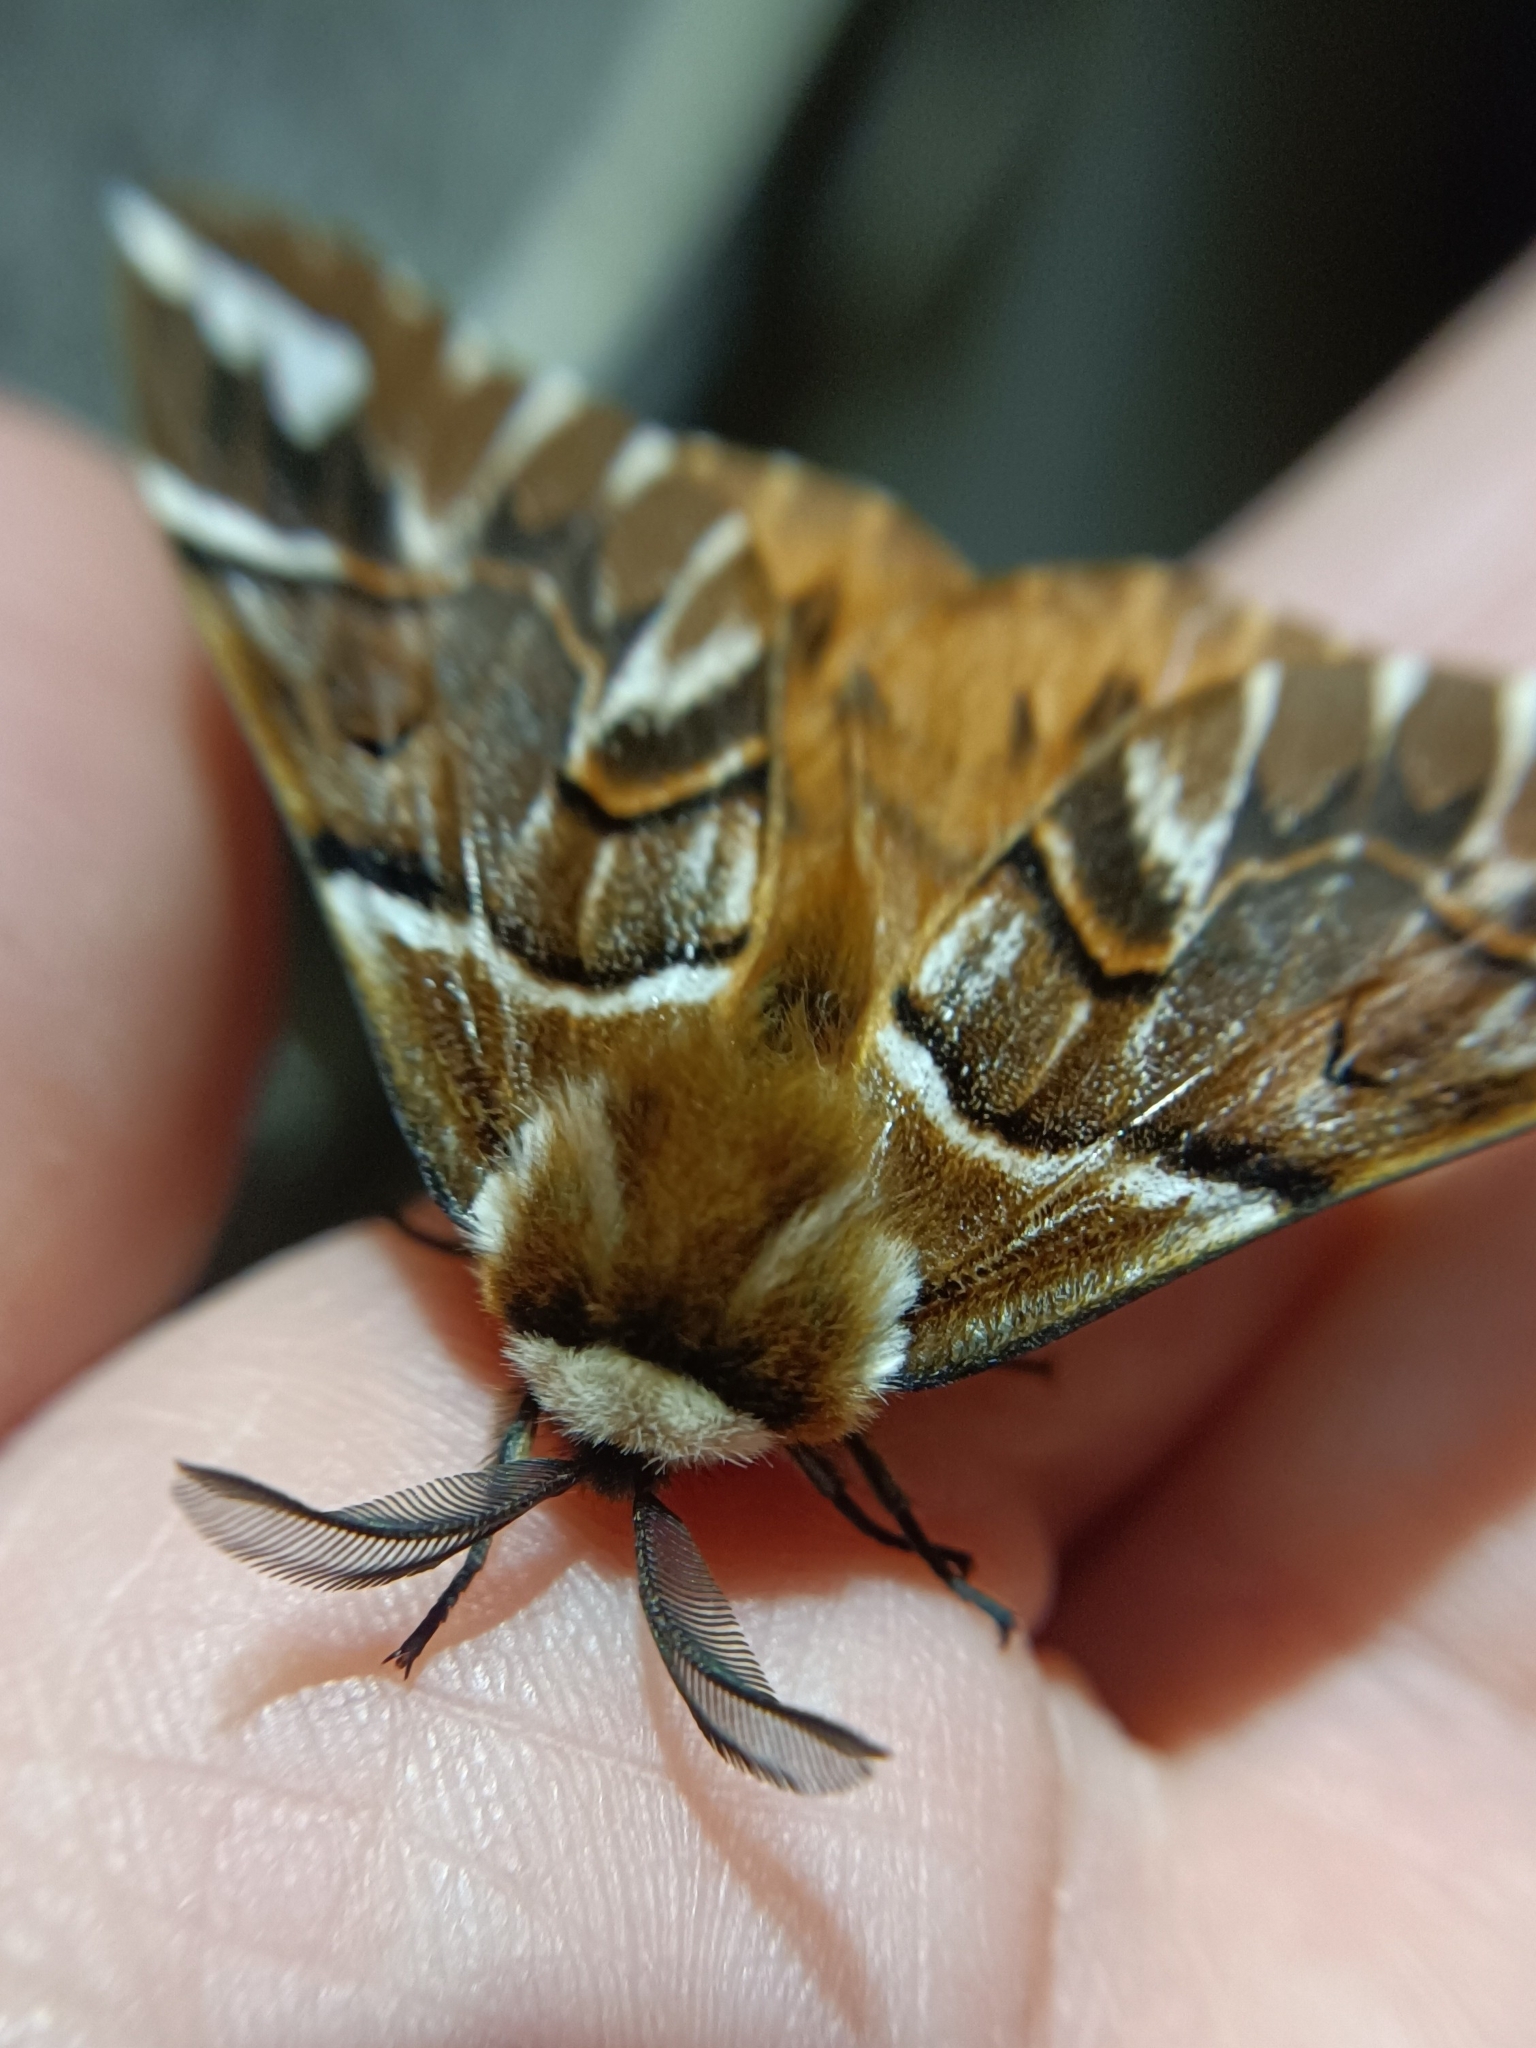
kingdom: Animalia
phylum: Arthropoda
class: Insecta
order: Lepidoptera
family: Endromidae
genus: Endromis
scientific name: Endromis versicolora
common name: Kentish glory
